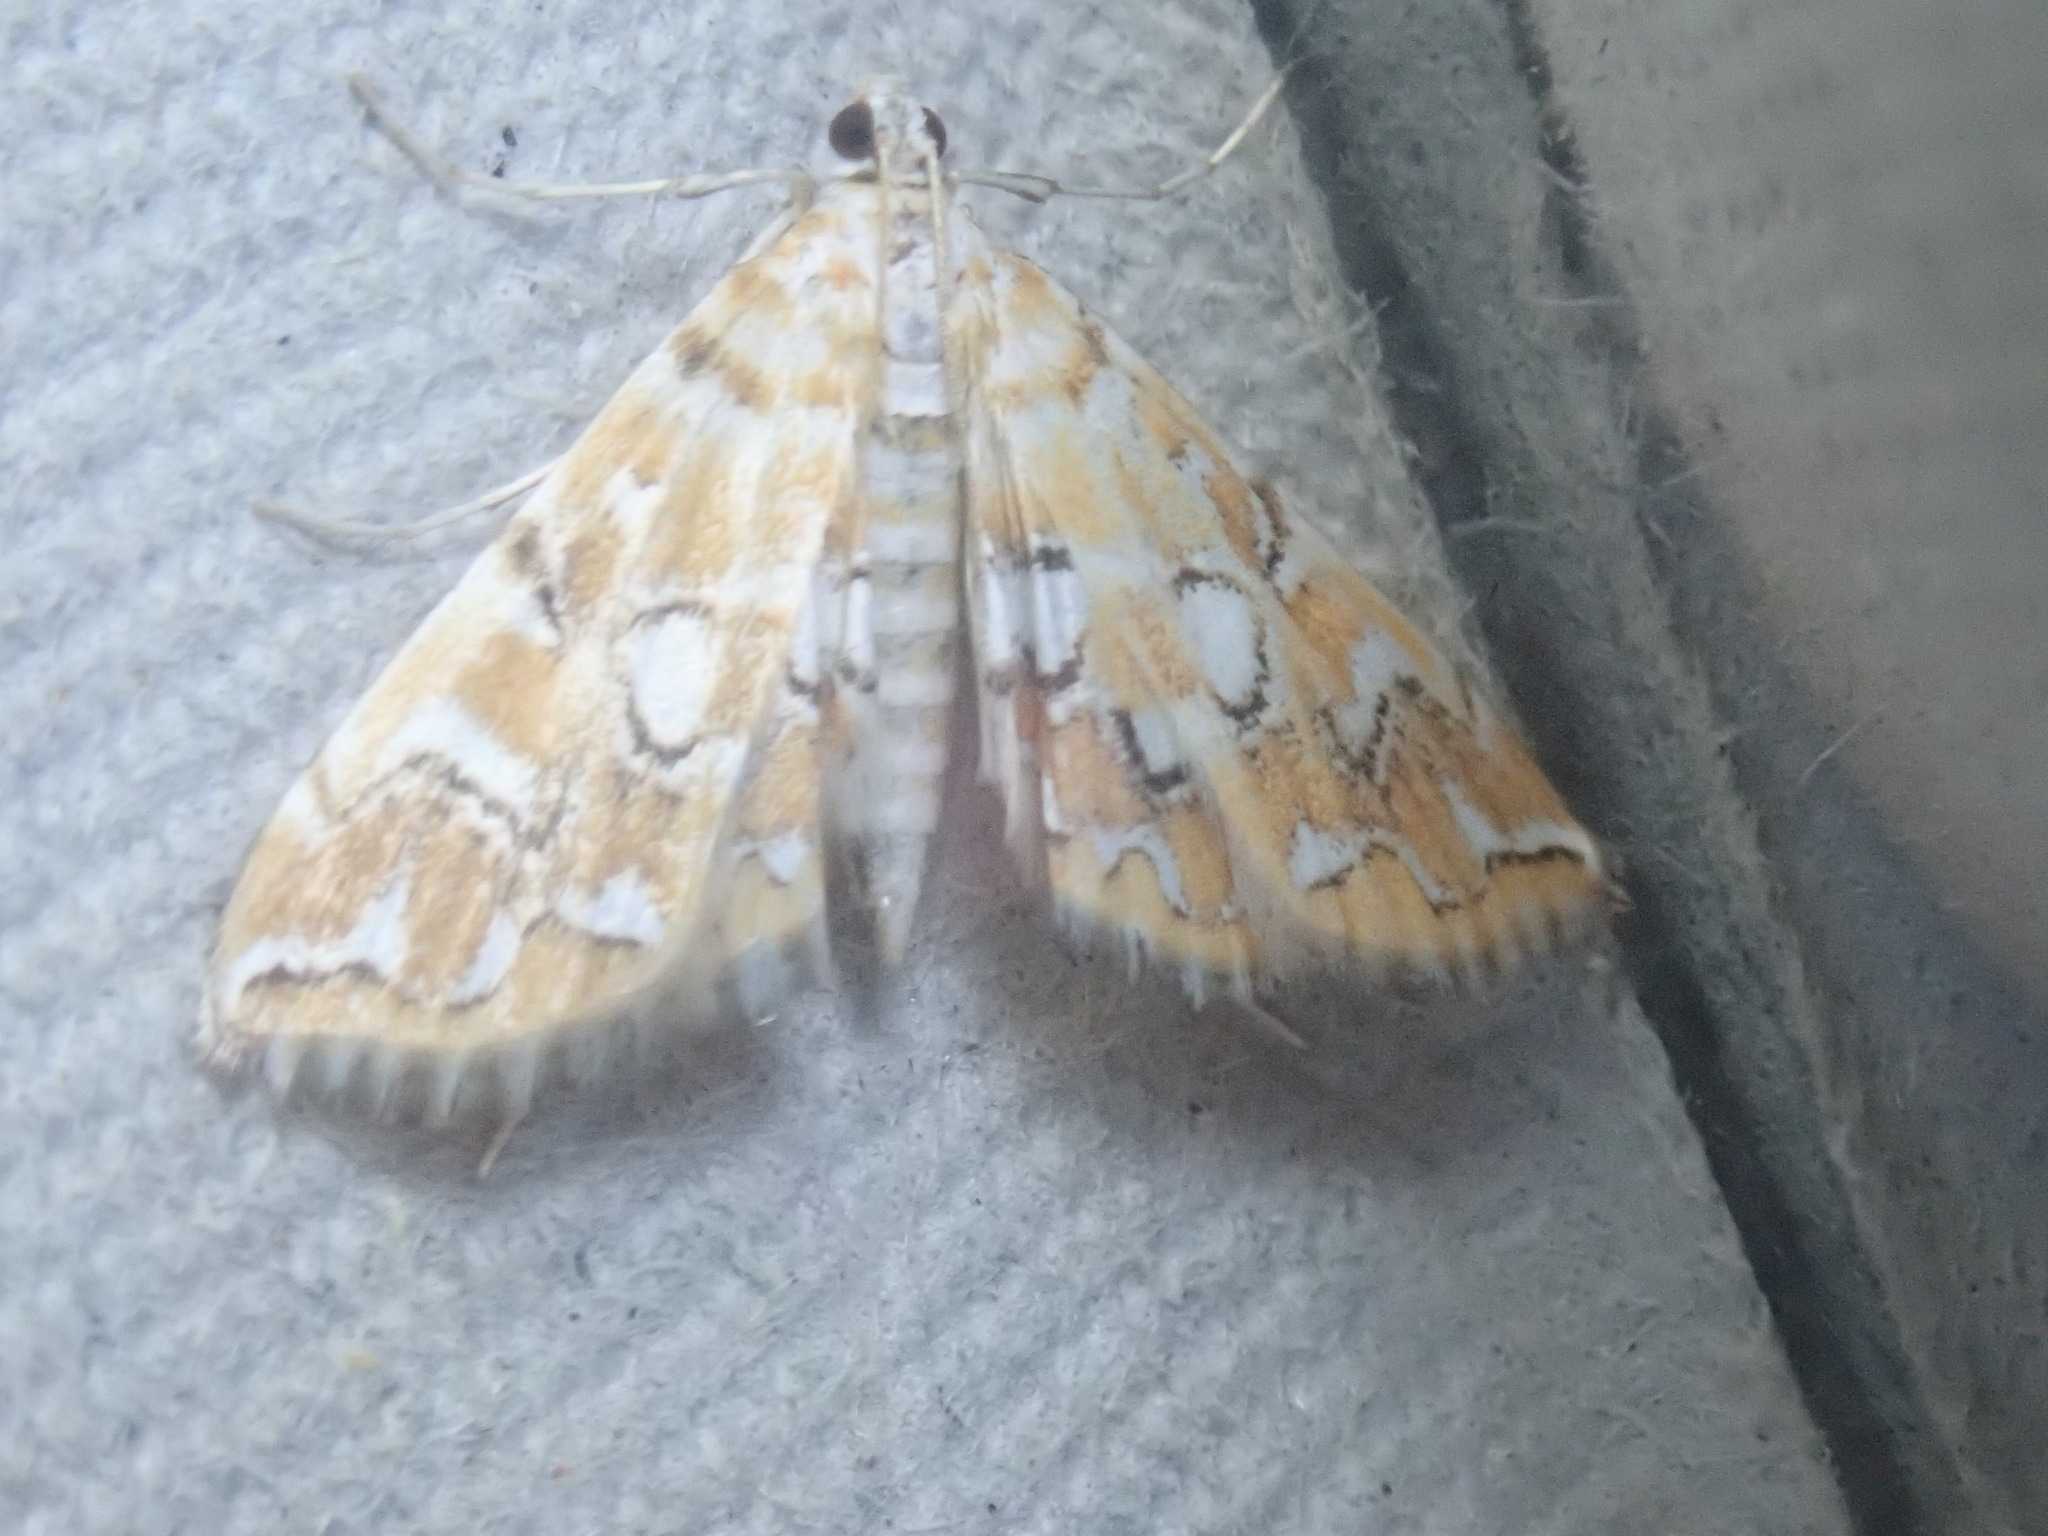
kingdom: Animalia
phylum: Arthropoda
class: Insecta
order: Lepidoptera
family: Crambidae
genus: Elophila
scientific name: Elophila icciusalis
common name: Pondside pyralid moth
